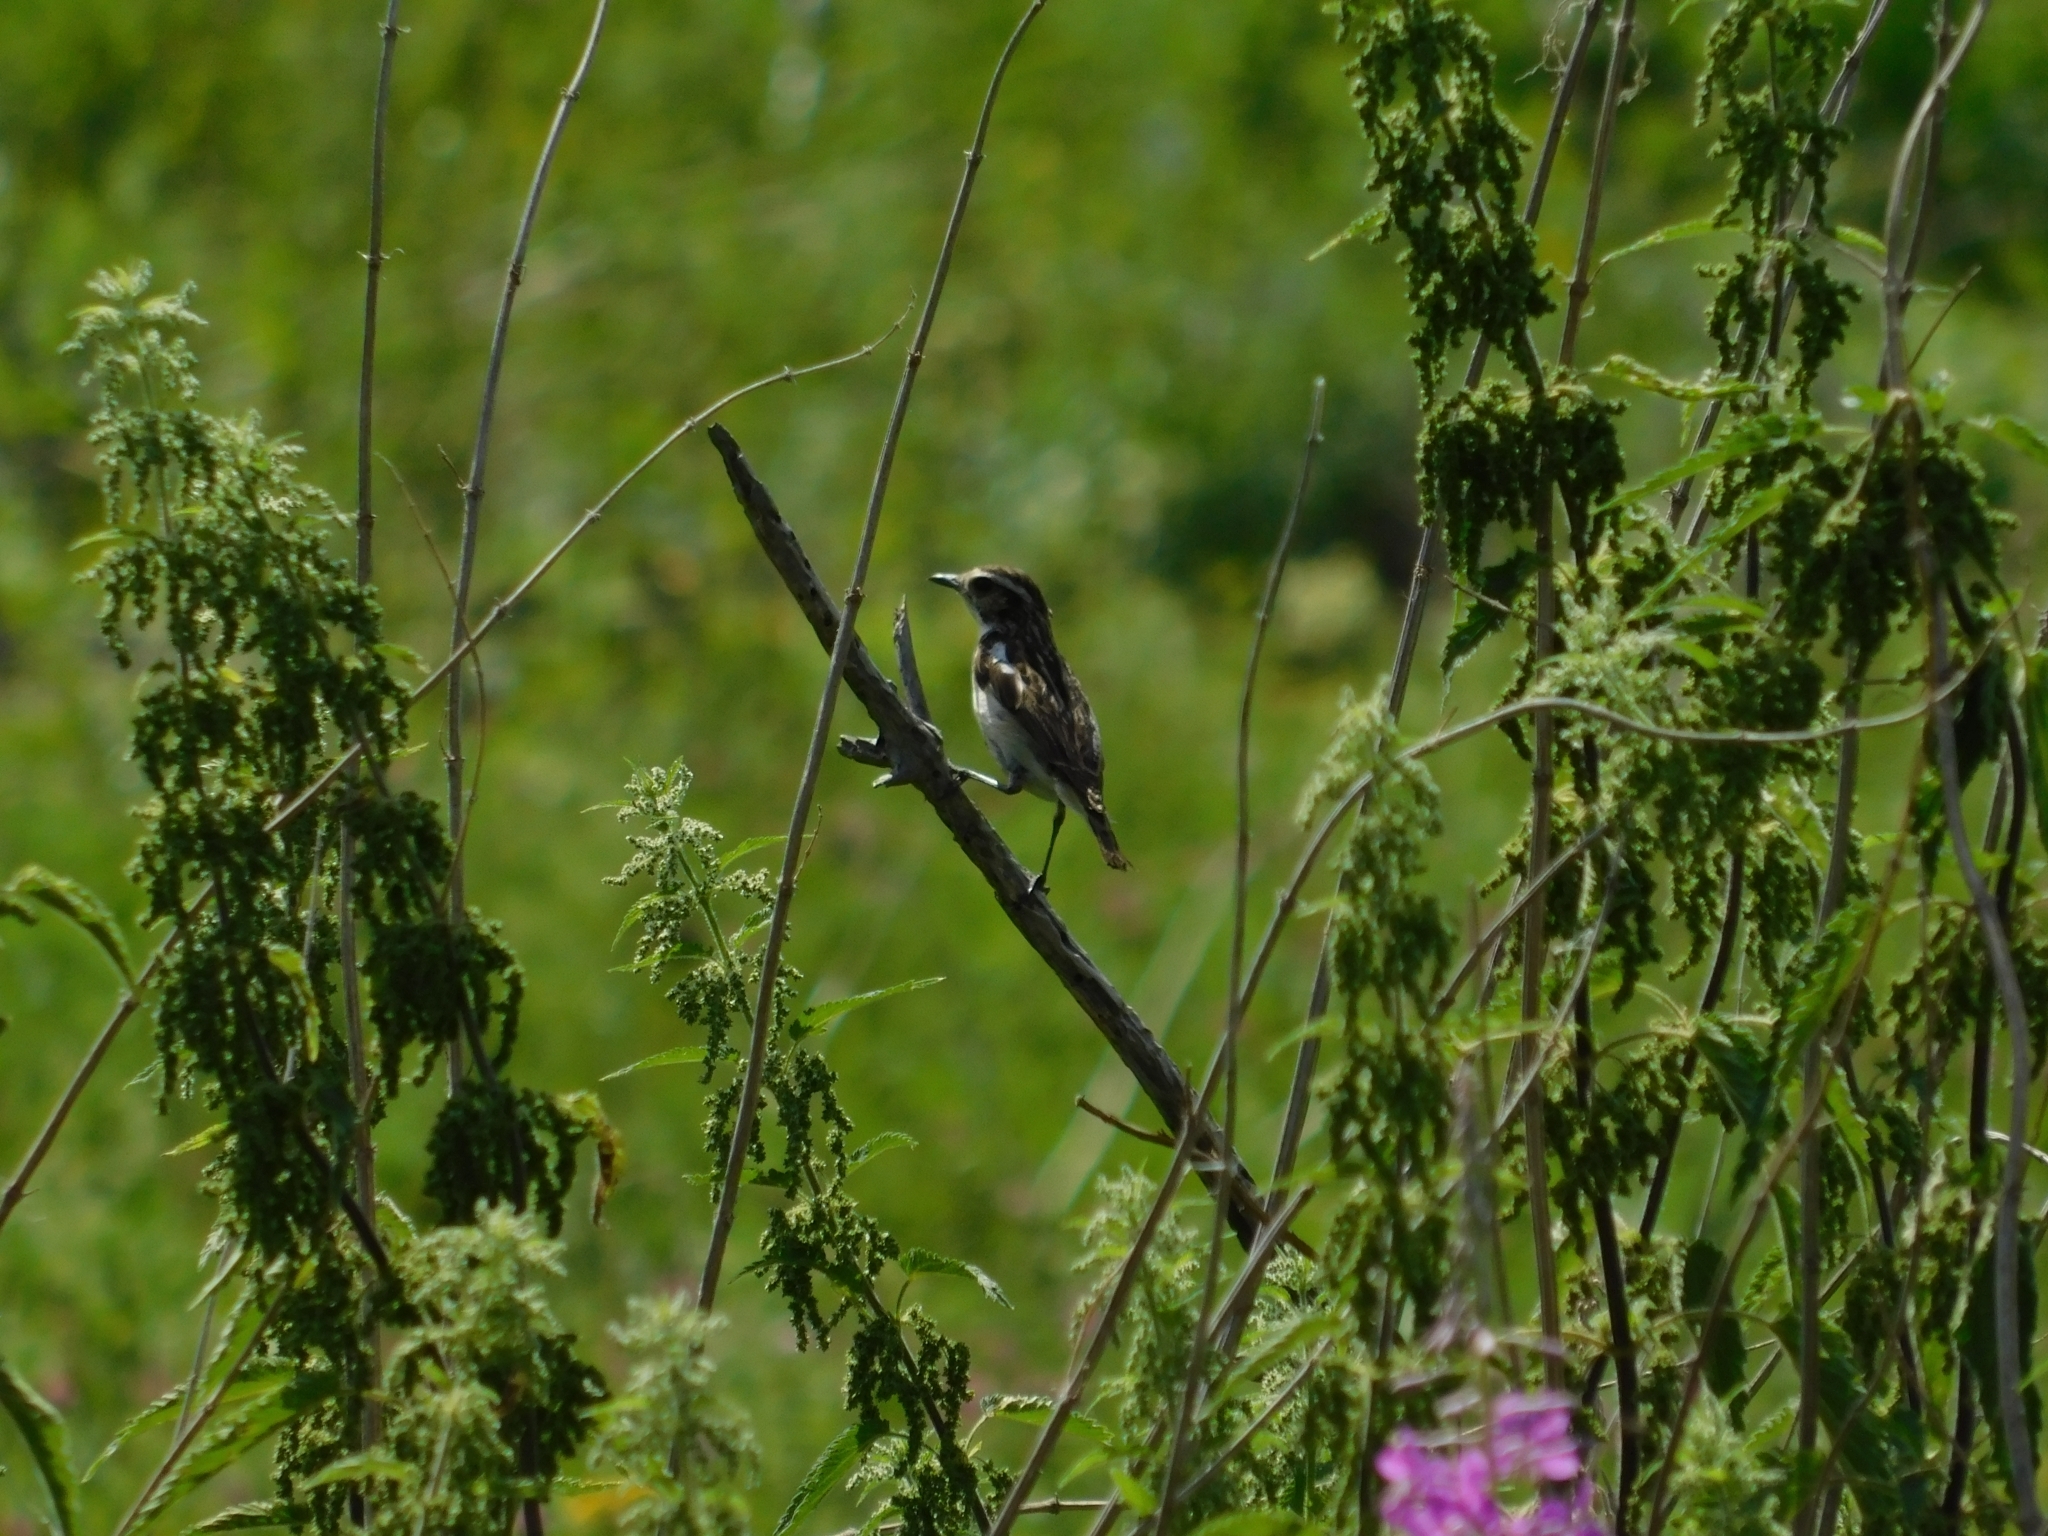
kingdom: Animalia
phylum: Chordata
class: Aves
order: Passeriformes
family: Muscicapidae
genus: Saxicola
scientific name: Saxicola rubetra
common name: Whinchat
